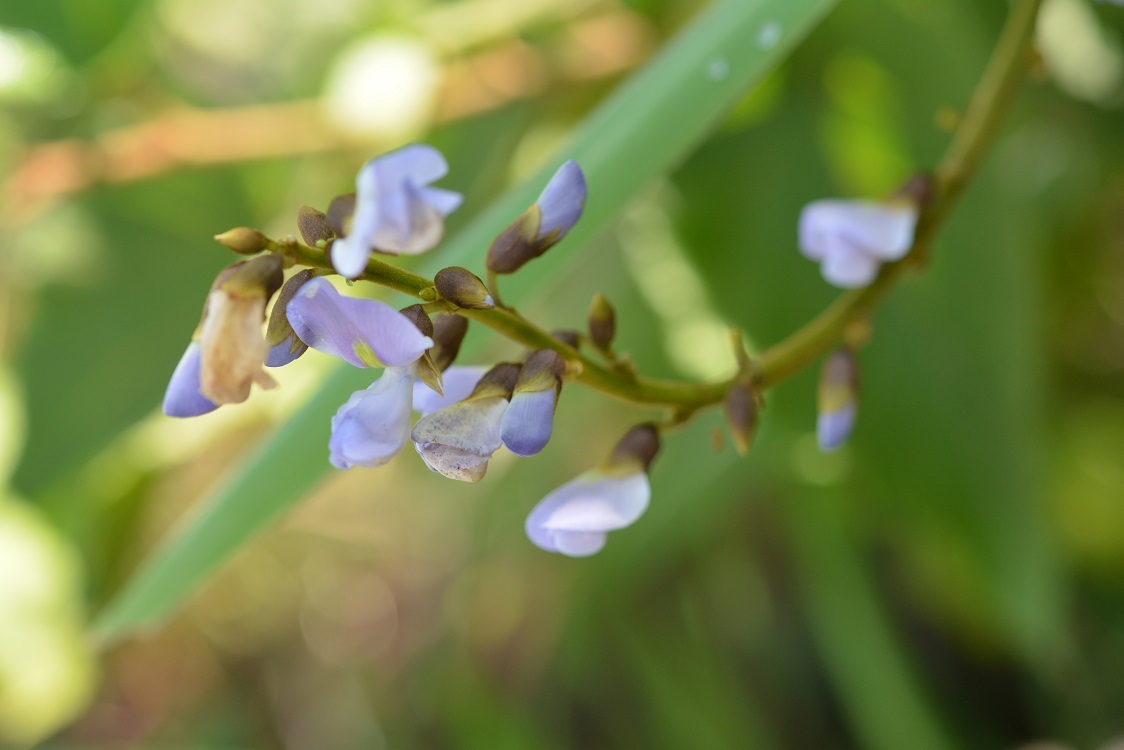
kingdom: Plantae
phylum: Tracheophyta
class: Magnoliopsida
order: Fabales
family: Fabaceae
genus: Pachyrhizus
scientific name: Pachyrhizus erosus
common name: Yam bean
